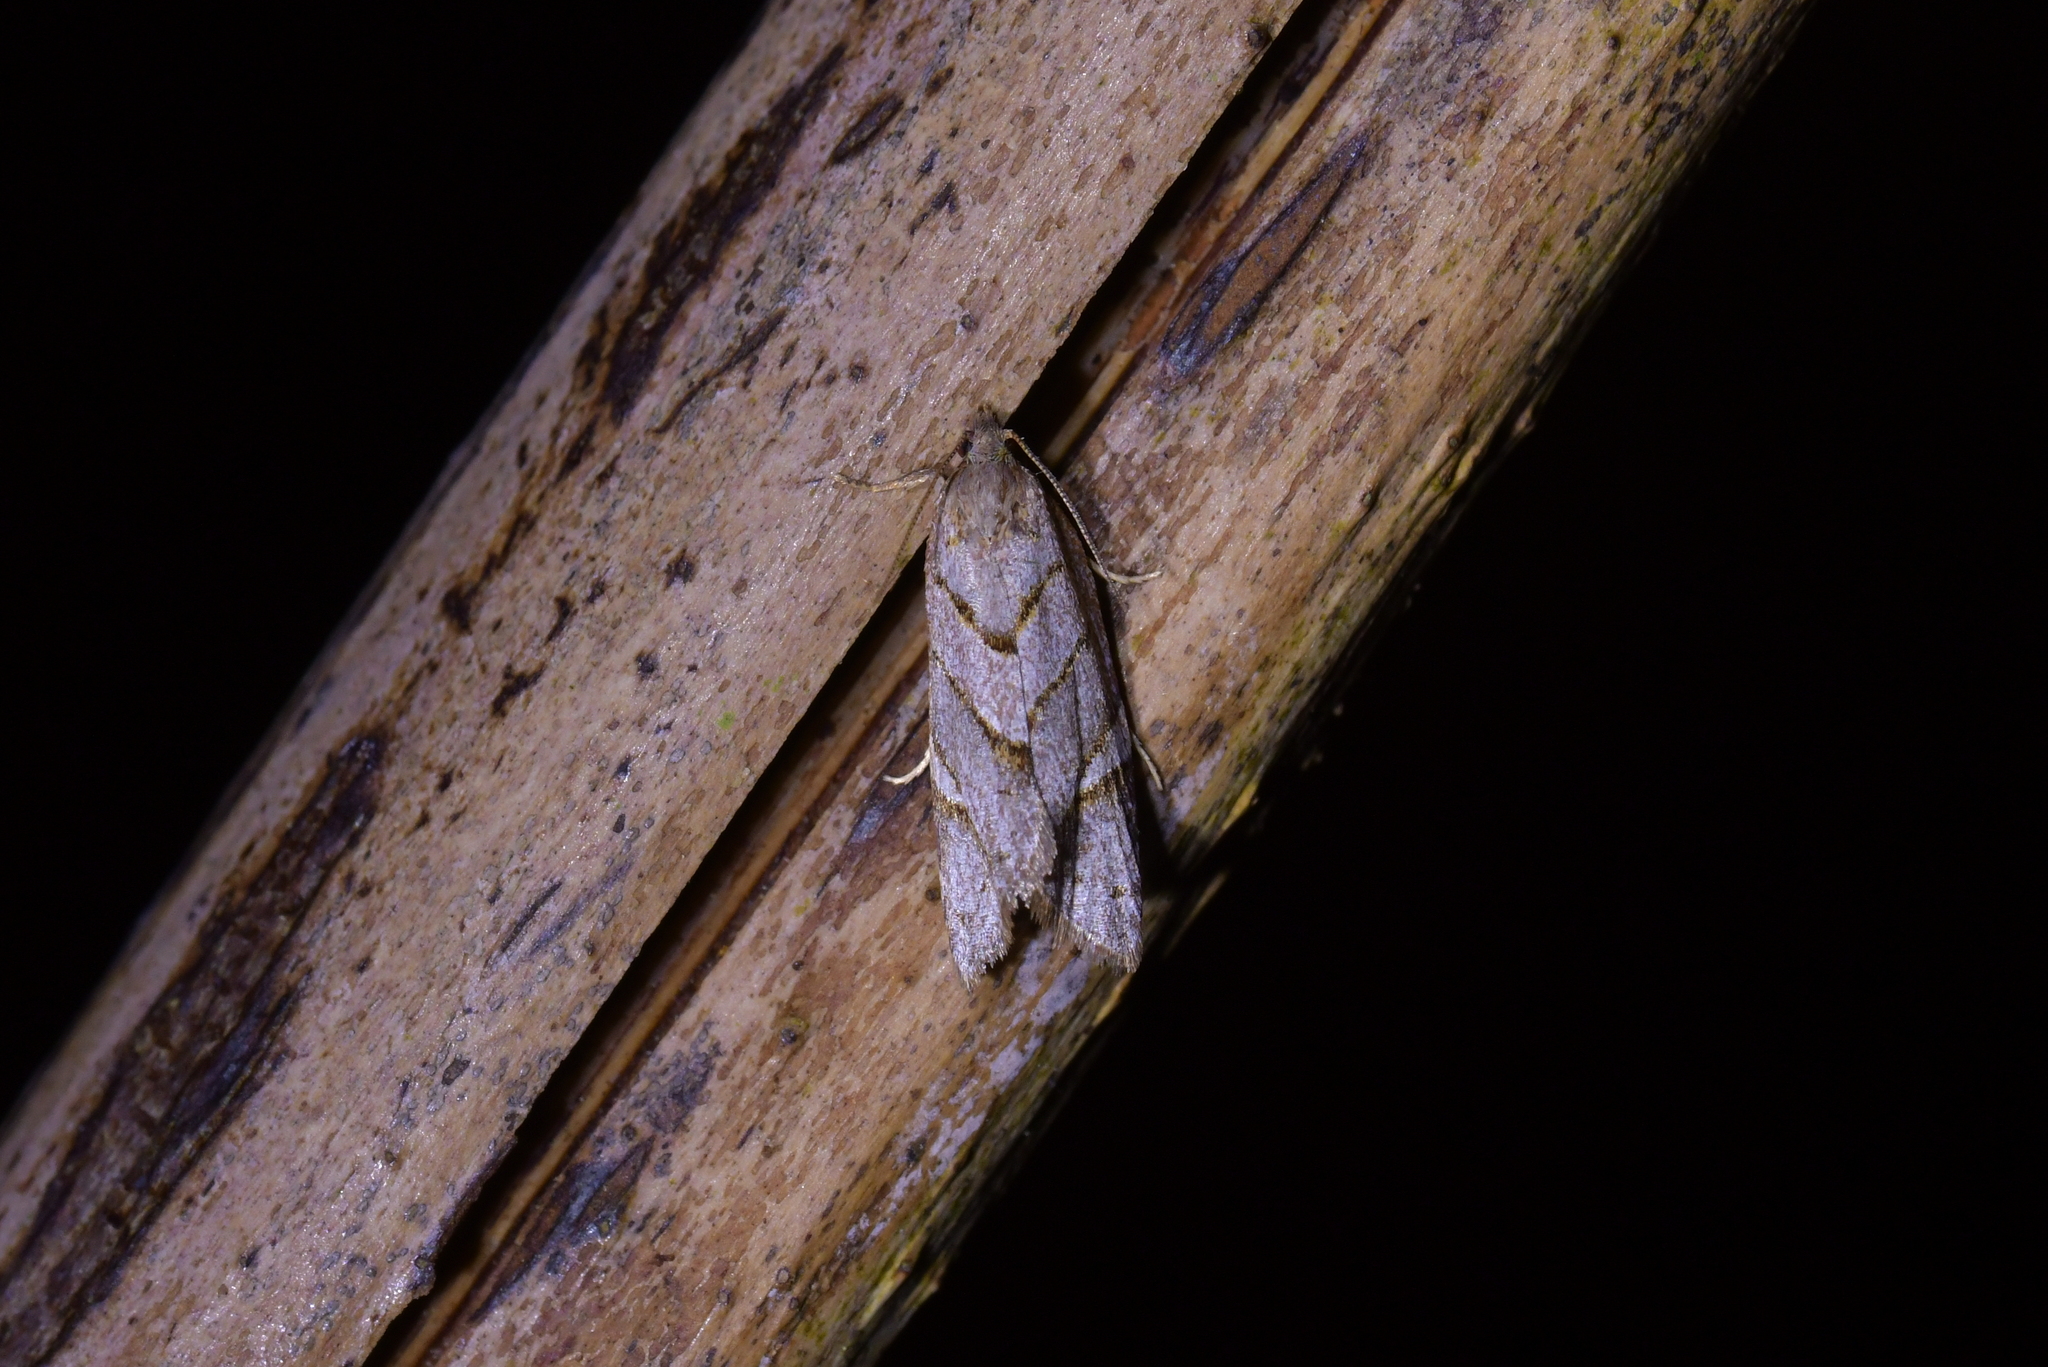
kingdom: Animalia
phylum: Arthropoda
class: Insecta
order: Lepidoptera
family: Tortricidae
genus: Ecclitica
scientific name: Ecclitica torogramma
